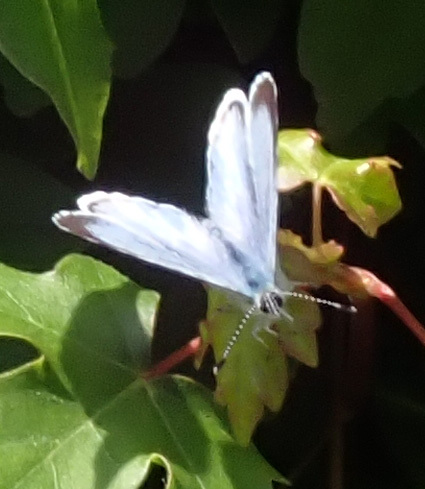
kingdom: Animalia
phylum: Arthropoda
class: Insecta
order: Lepidoptera
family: Lycaenidae
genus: Celastrina
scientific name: Celastrina argiolus
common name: Holly blue
